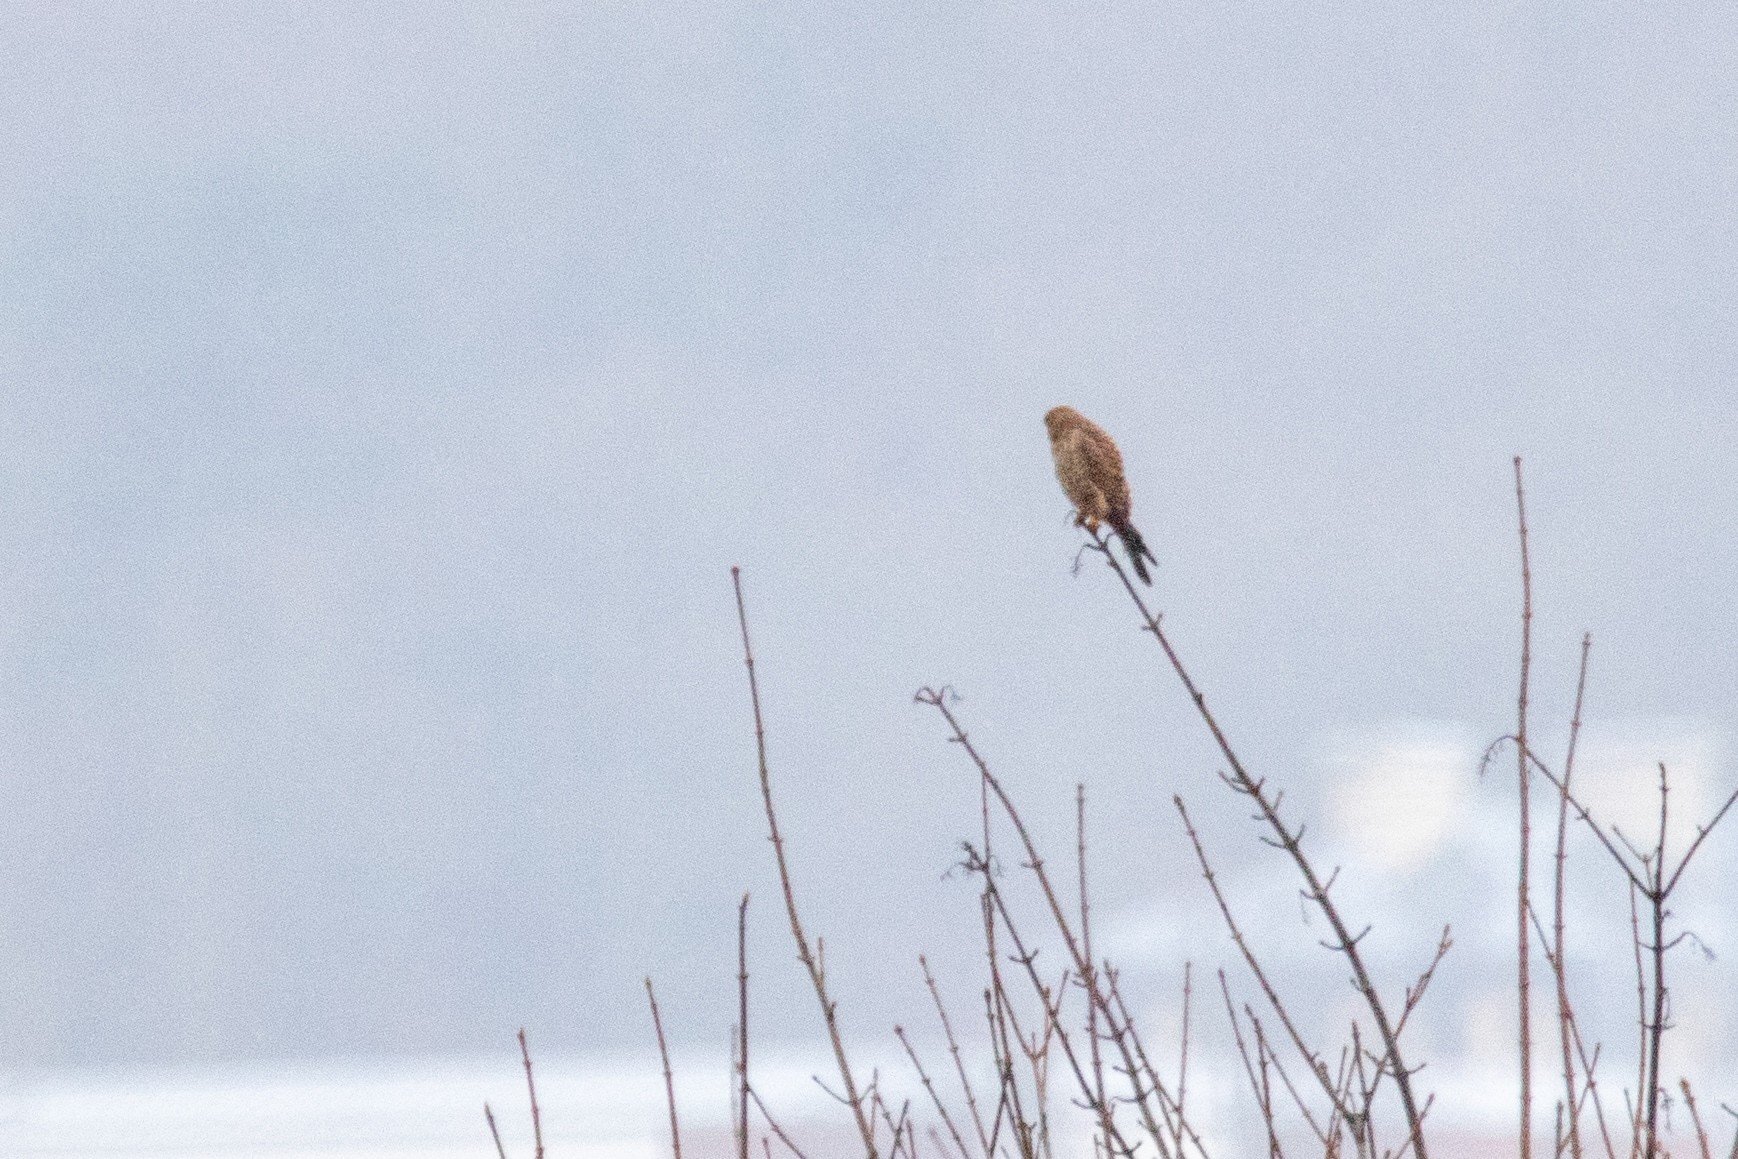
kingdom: Animalia
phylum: Chordata
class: Aves
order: Falconiformes
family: Falconidae
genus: Falco
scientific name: Falco tinnunculus
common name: Common kestrel
